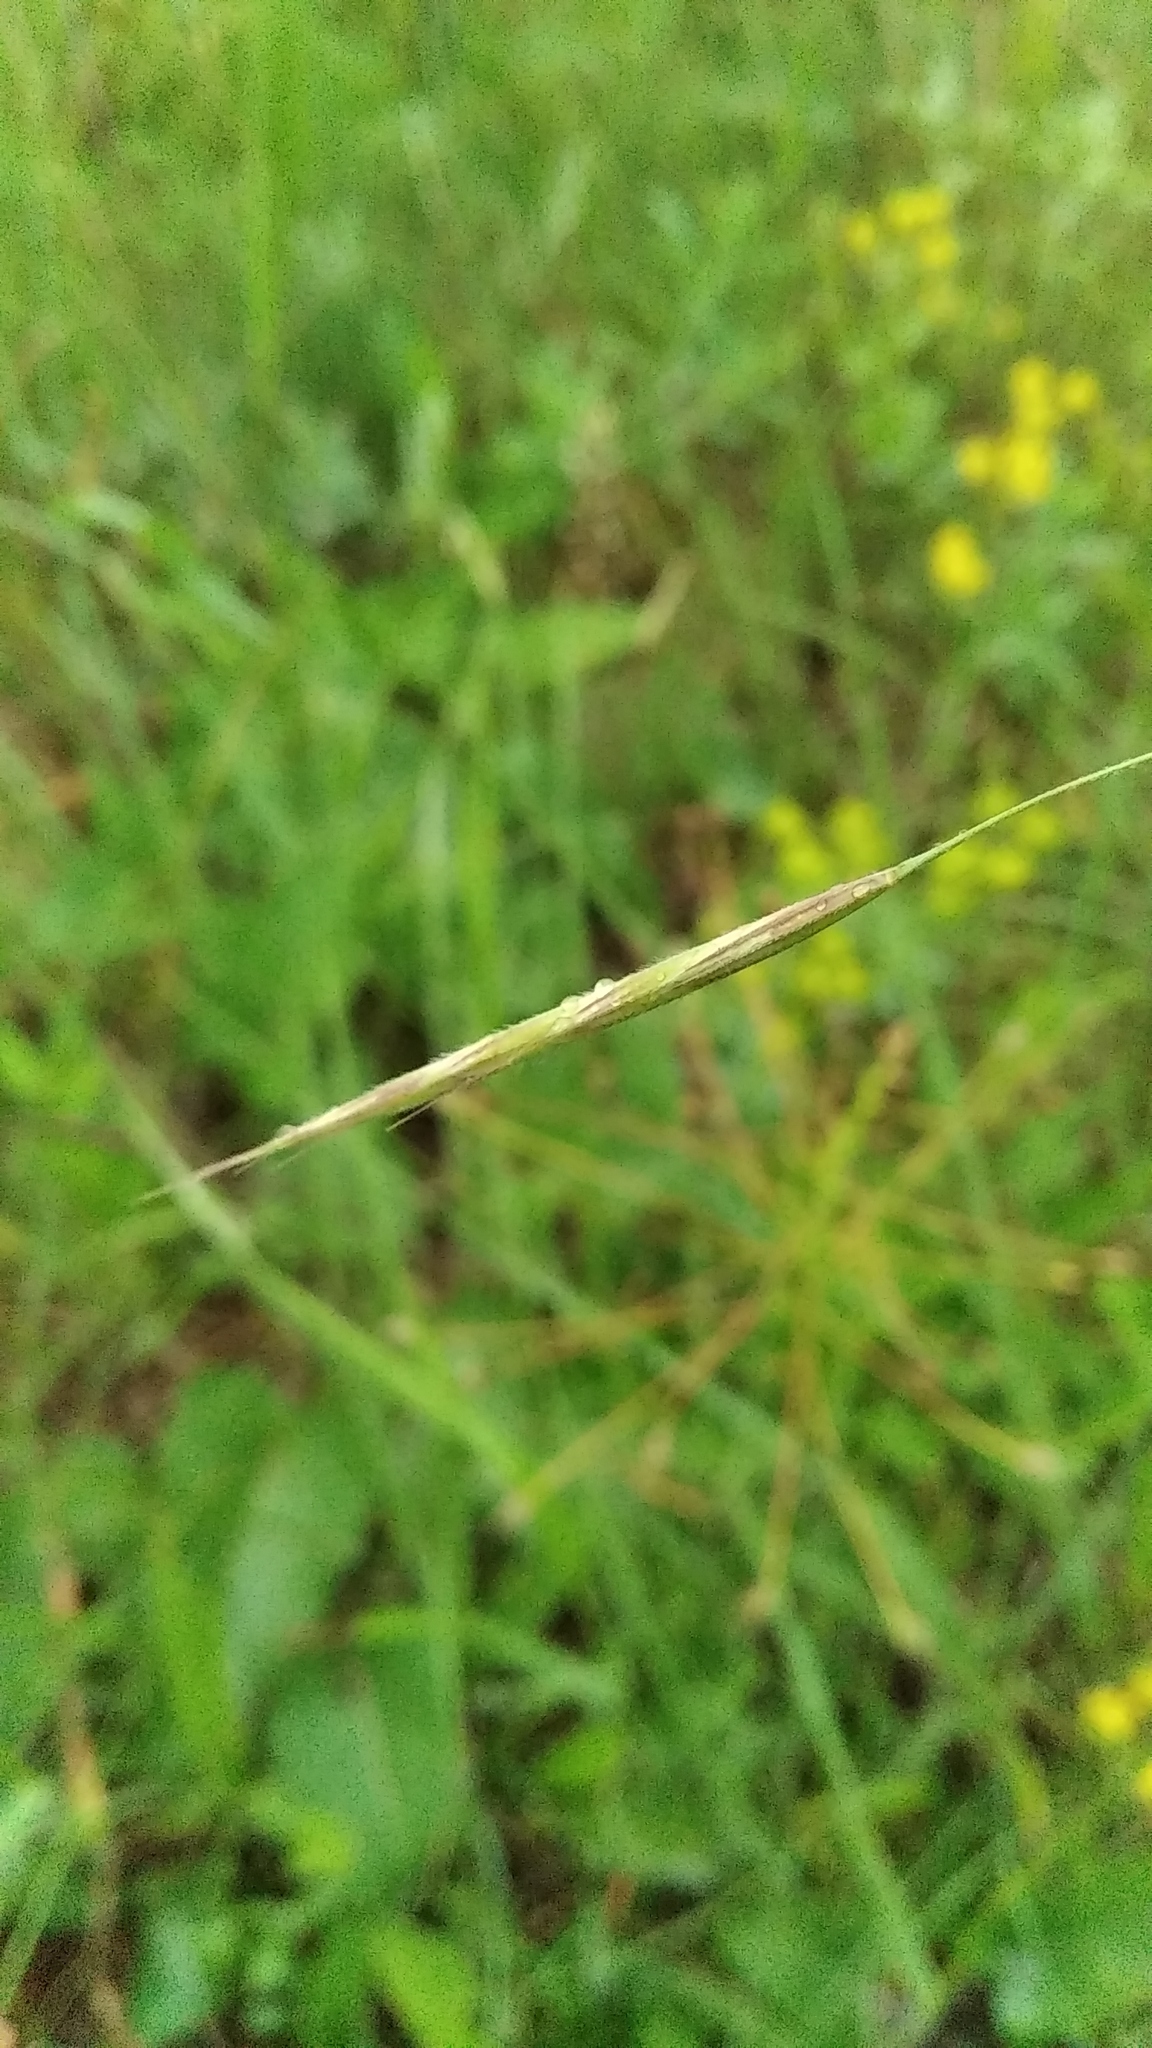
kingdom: Plantae
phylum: Tracheophyta
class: Liliopsida
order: Poales
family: Poaceae
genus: Koeleria
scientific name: Koeleria macrantha
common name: Crested hair-grass
